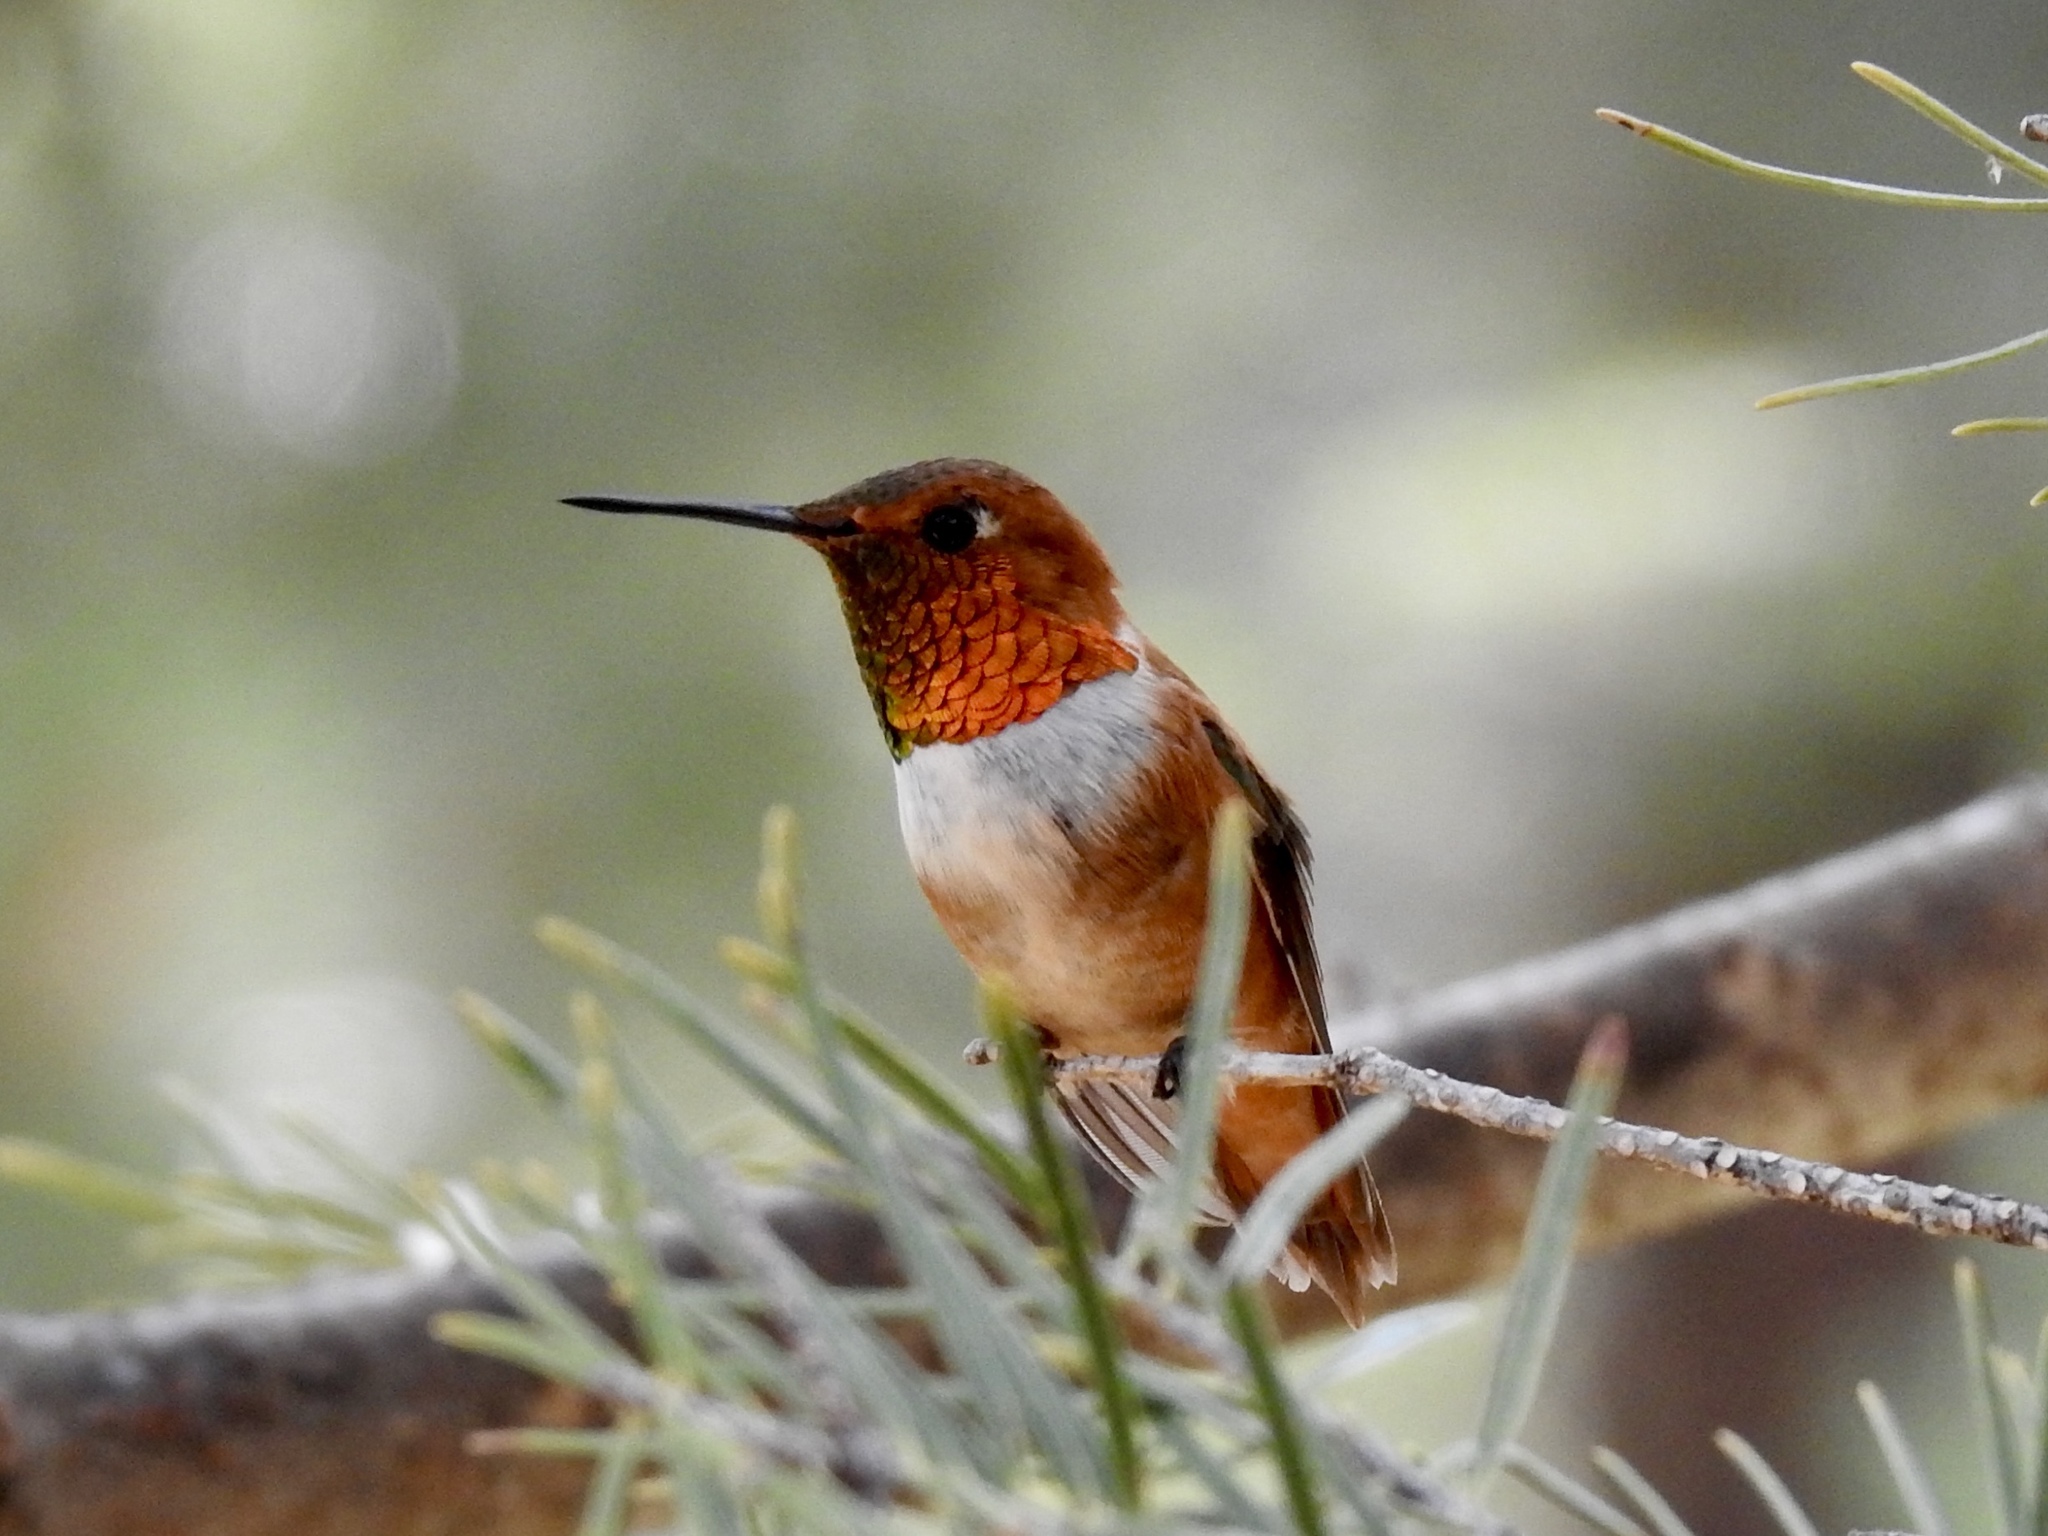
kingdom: Animalia
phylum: Chordata
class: Aves
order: Apodiformes
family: Trochilidae
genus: Selasphorus
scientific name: Selasphorus rufus
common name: Rufous hummingbird
